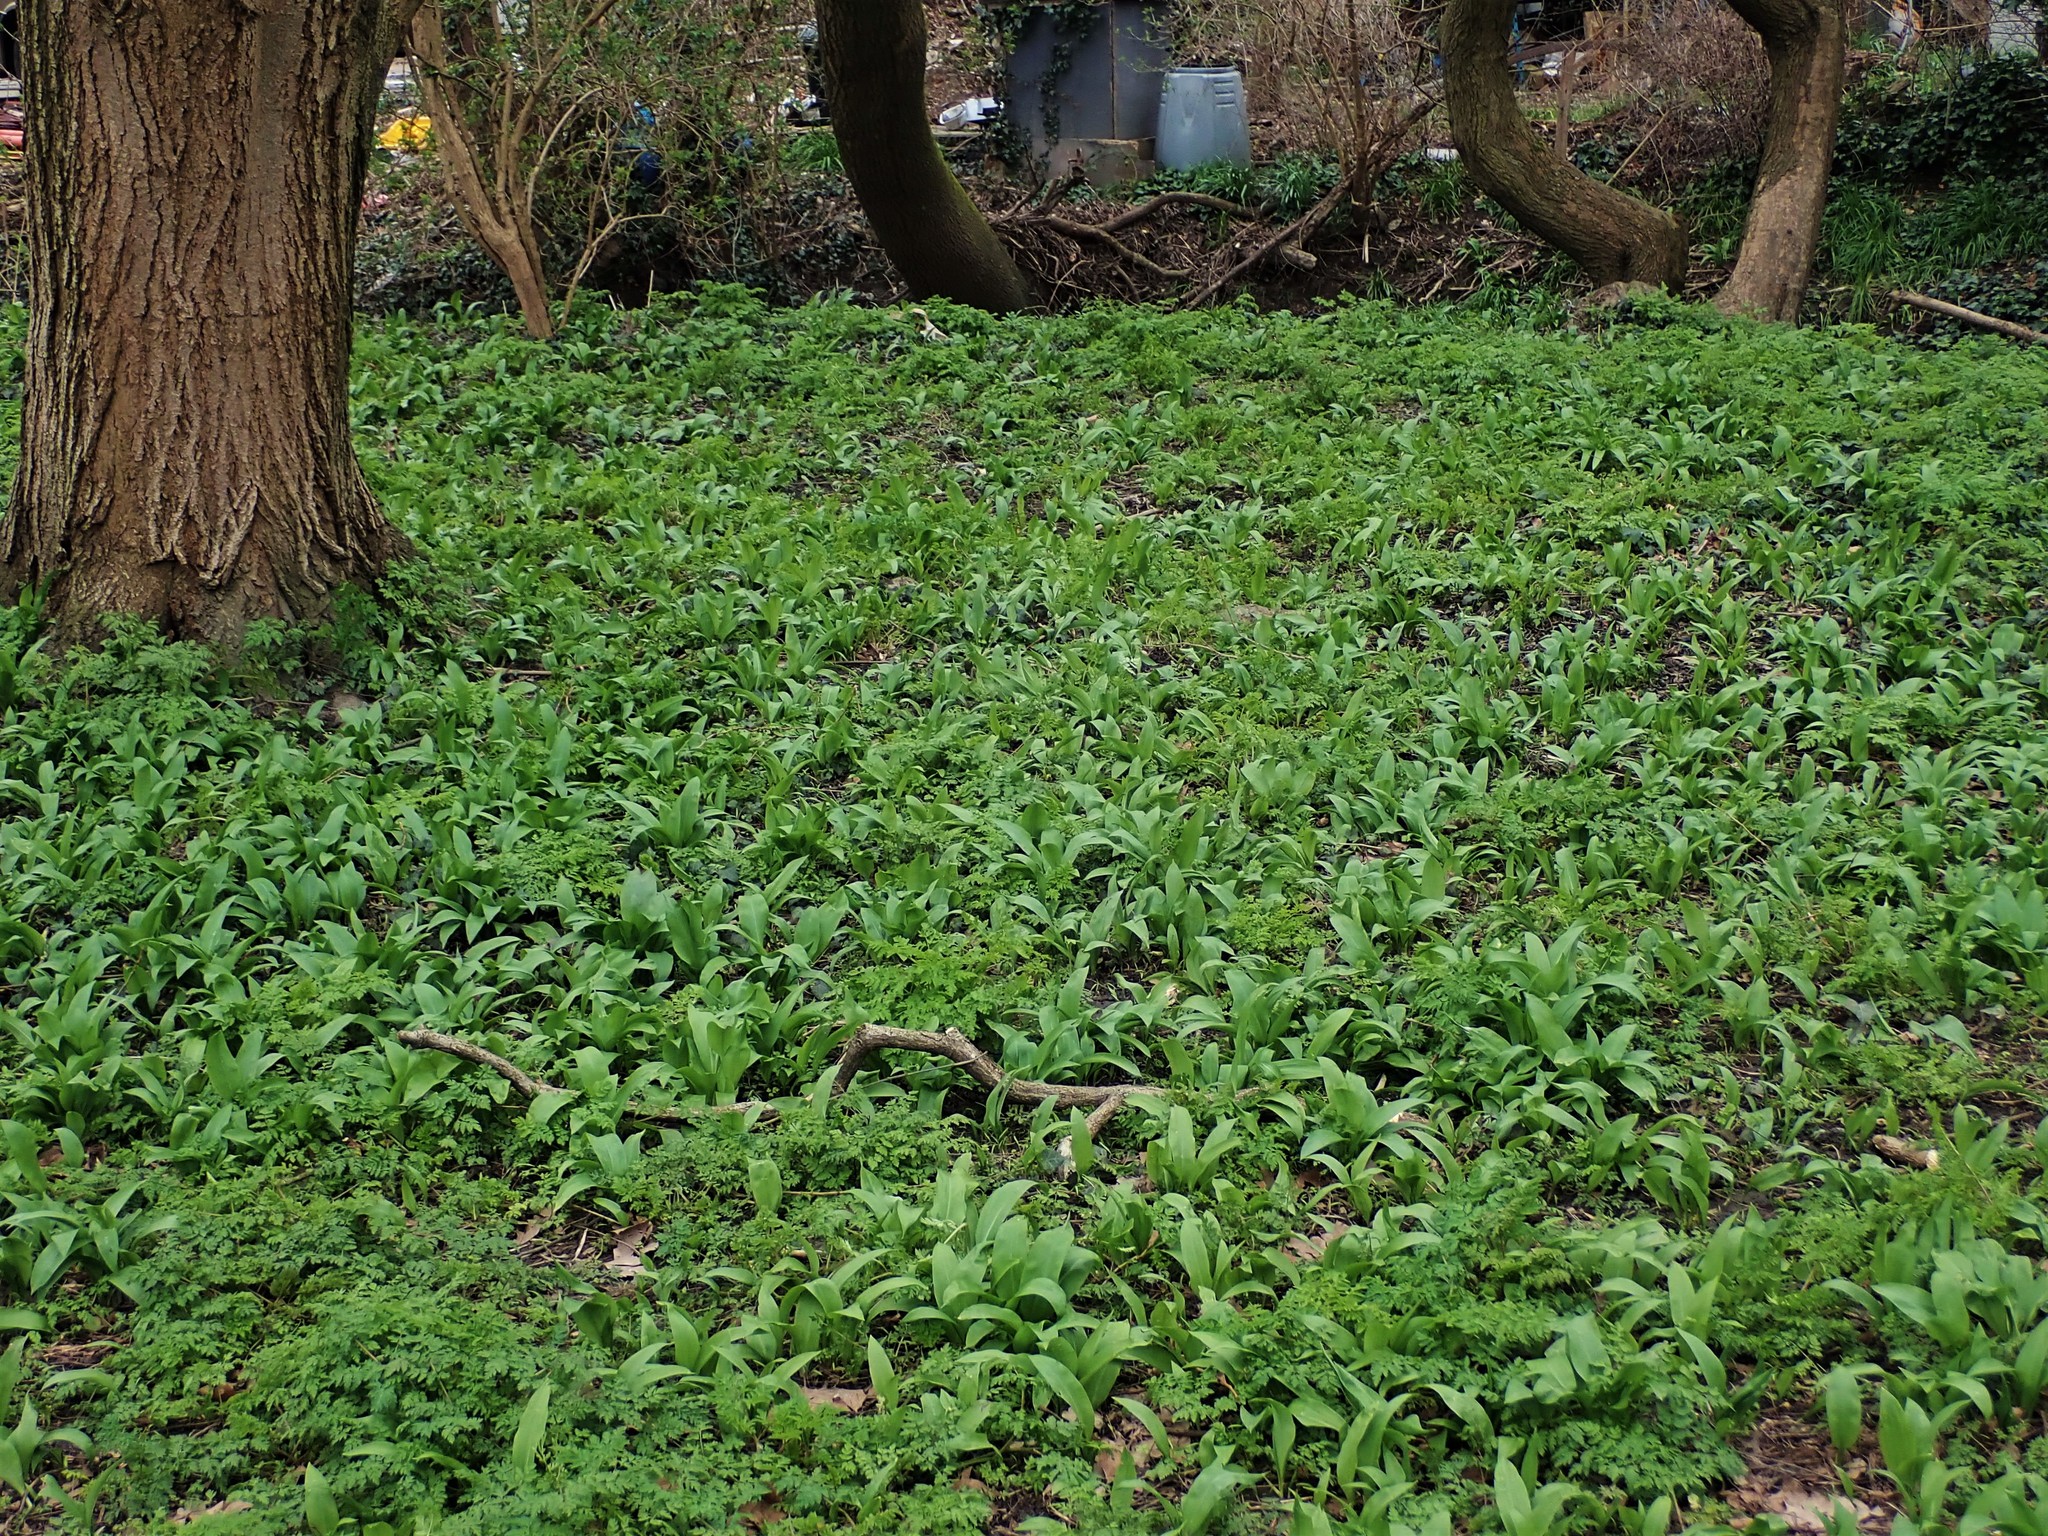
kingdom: Plantae
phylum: Tracheophyta
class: Liliopsida
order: Asparagales
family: Amaryllidaceae
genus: Allium
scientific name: Allium ursinum
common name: Ramsons
